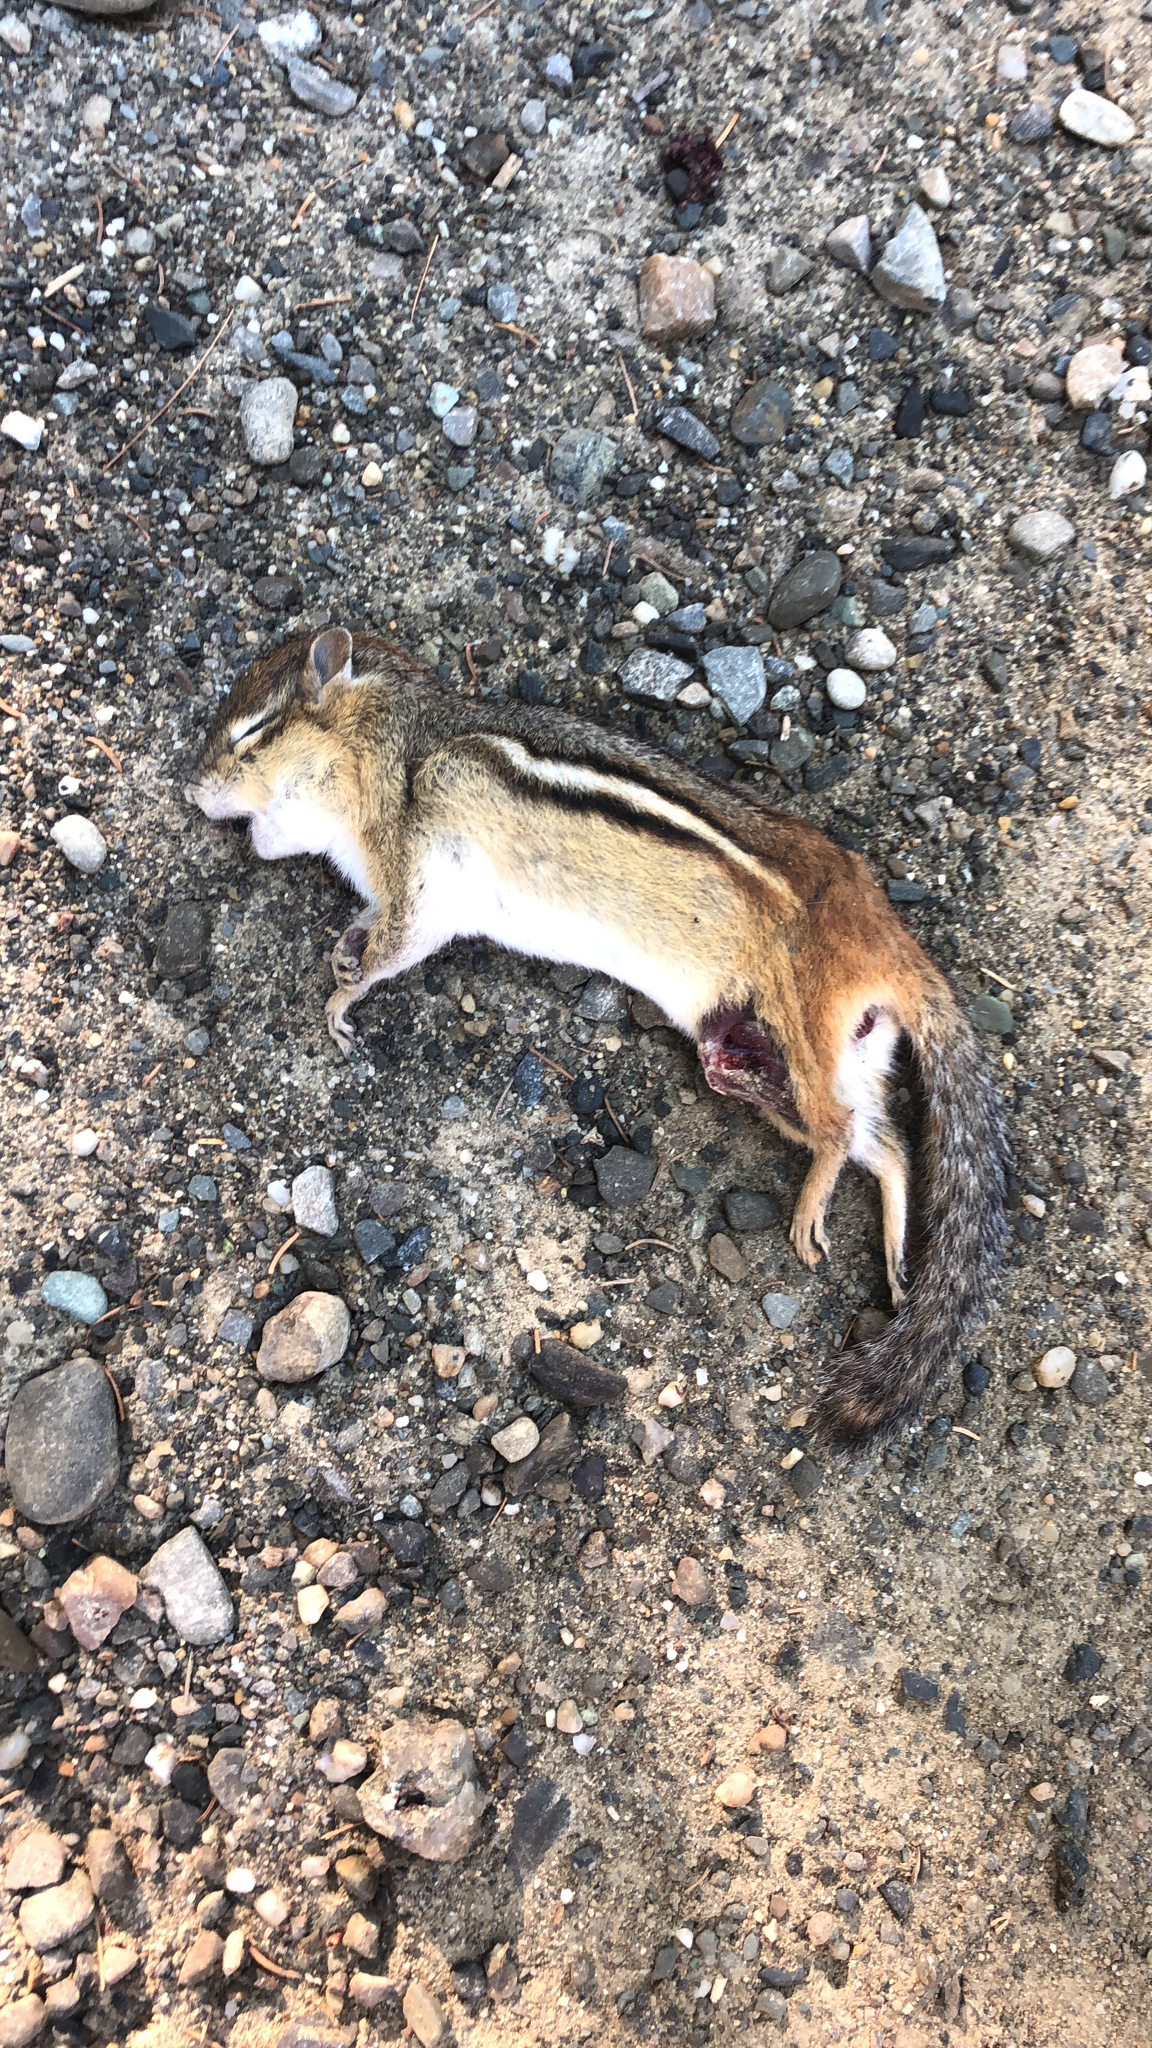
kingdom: Animalia
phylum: Chordata
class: Mammalia
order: Rodentia
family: Sciuridae
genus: Tamias
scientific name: Tamias striatus
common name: Eastern chipmunk
